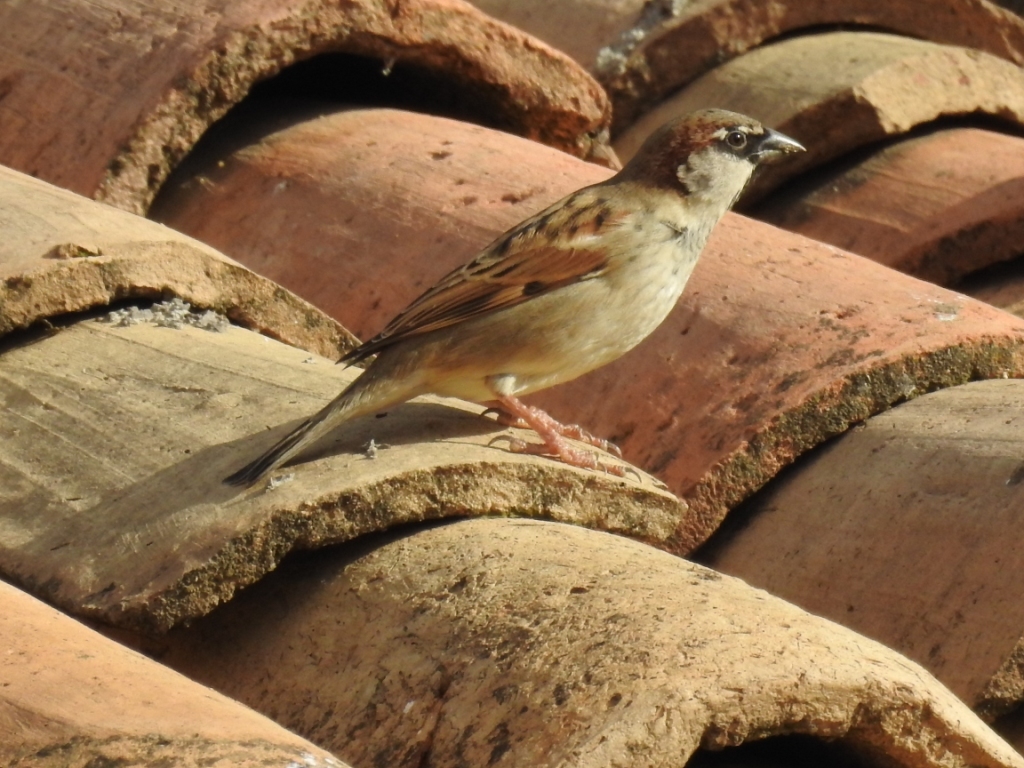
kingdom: Animalia
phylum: Chordata
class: Aves
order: Passeriformes
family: Passeridae
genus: Passer
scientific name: Passer domesticus
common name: House sparrow
